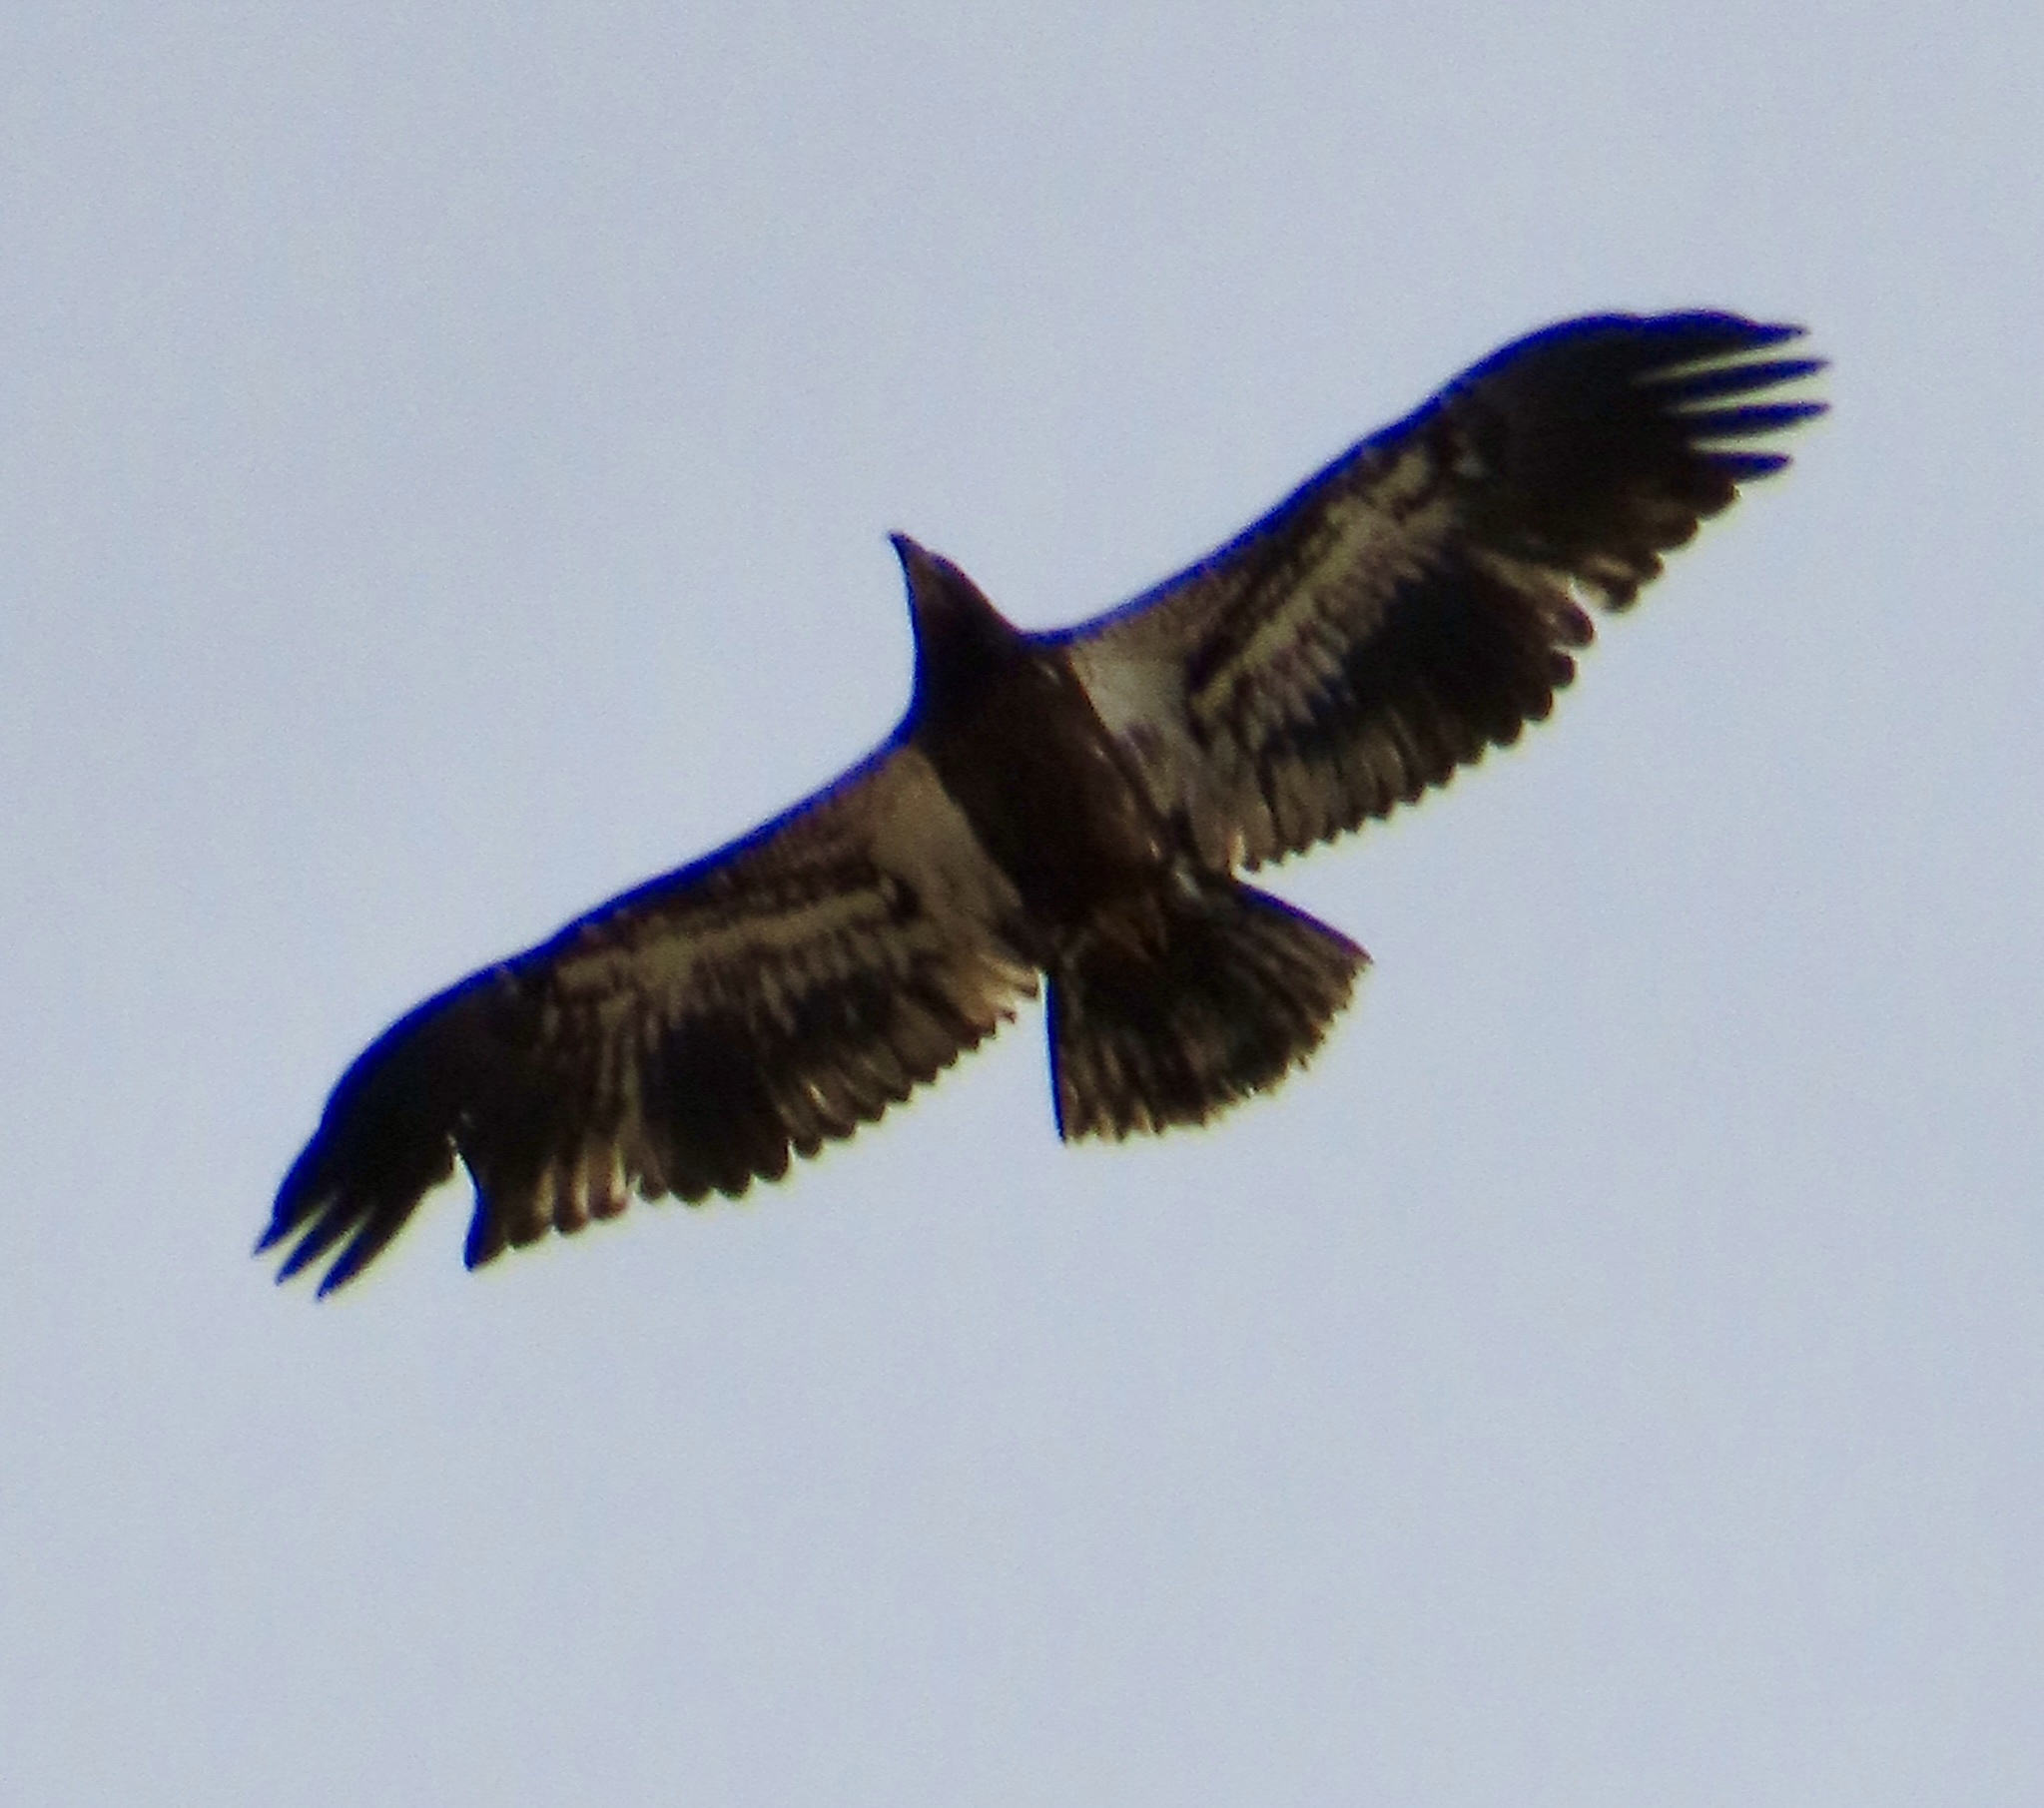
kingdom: Animalia
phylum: Chordata
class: Aves
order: Accipitriformes
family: Accipitridae
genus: Haliaeetus
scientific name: Haliaeetus leucocephalus
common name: Bald eagle
